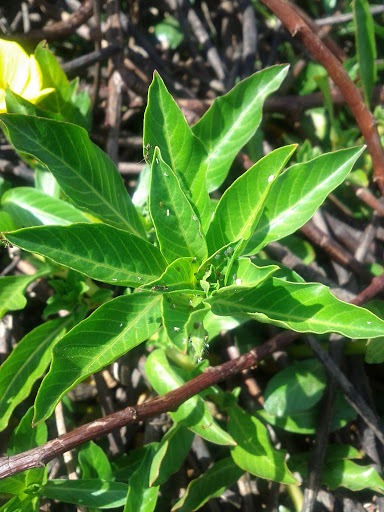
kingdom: Plantae
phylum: Tracheophyta
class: Magnoliopsida
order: Myrtales
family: Onagraceae
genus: Ludwigia
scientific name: Ludwigia peploides
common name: Floating primrose-willow
